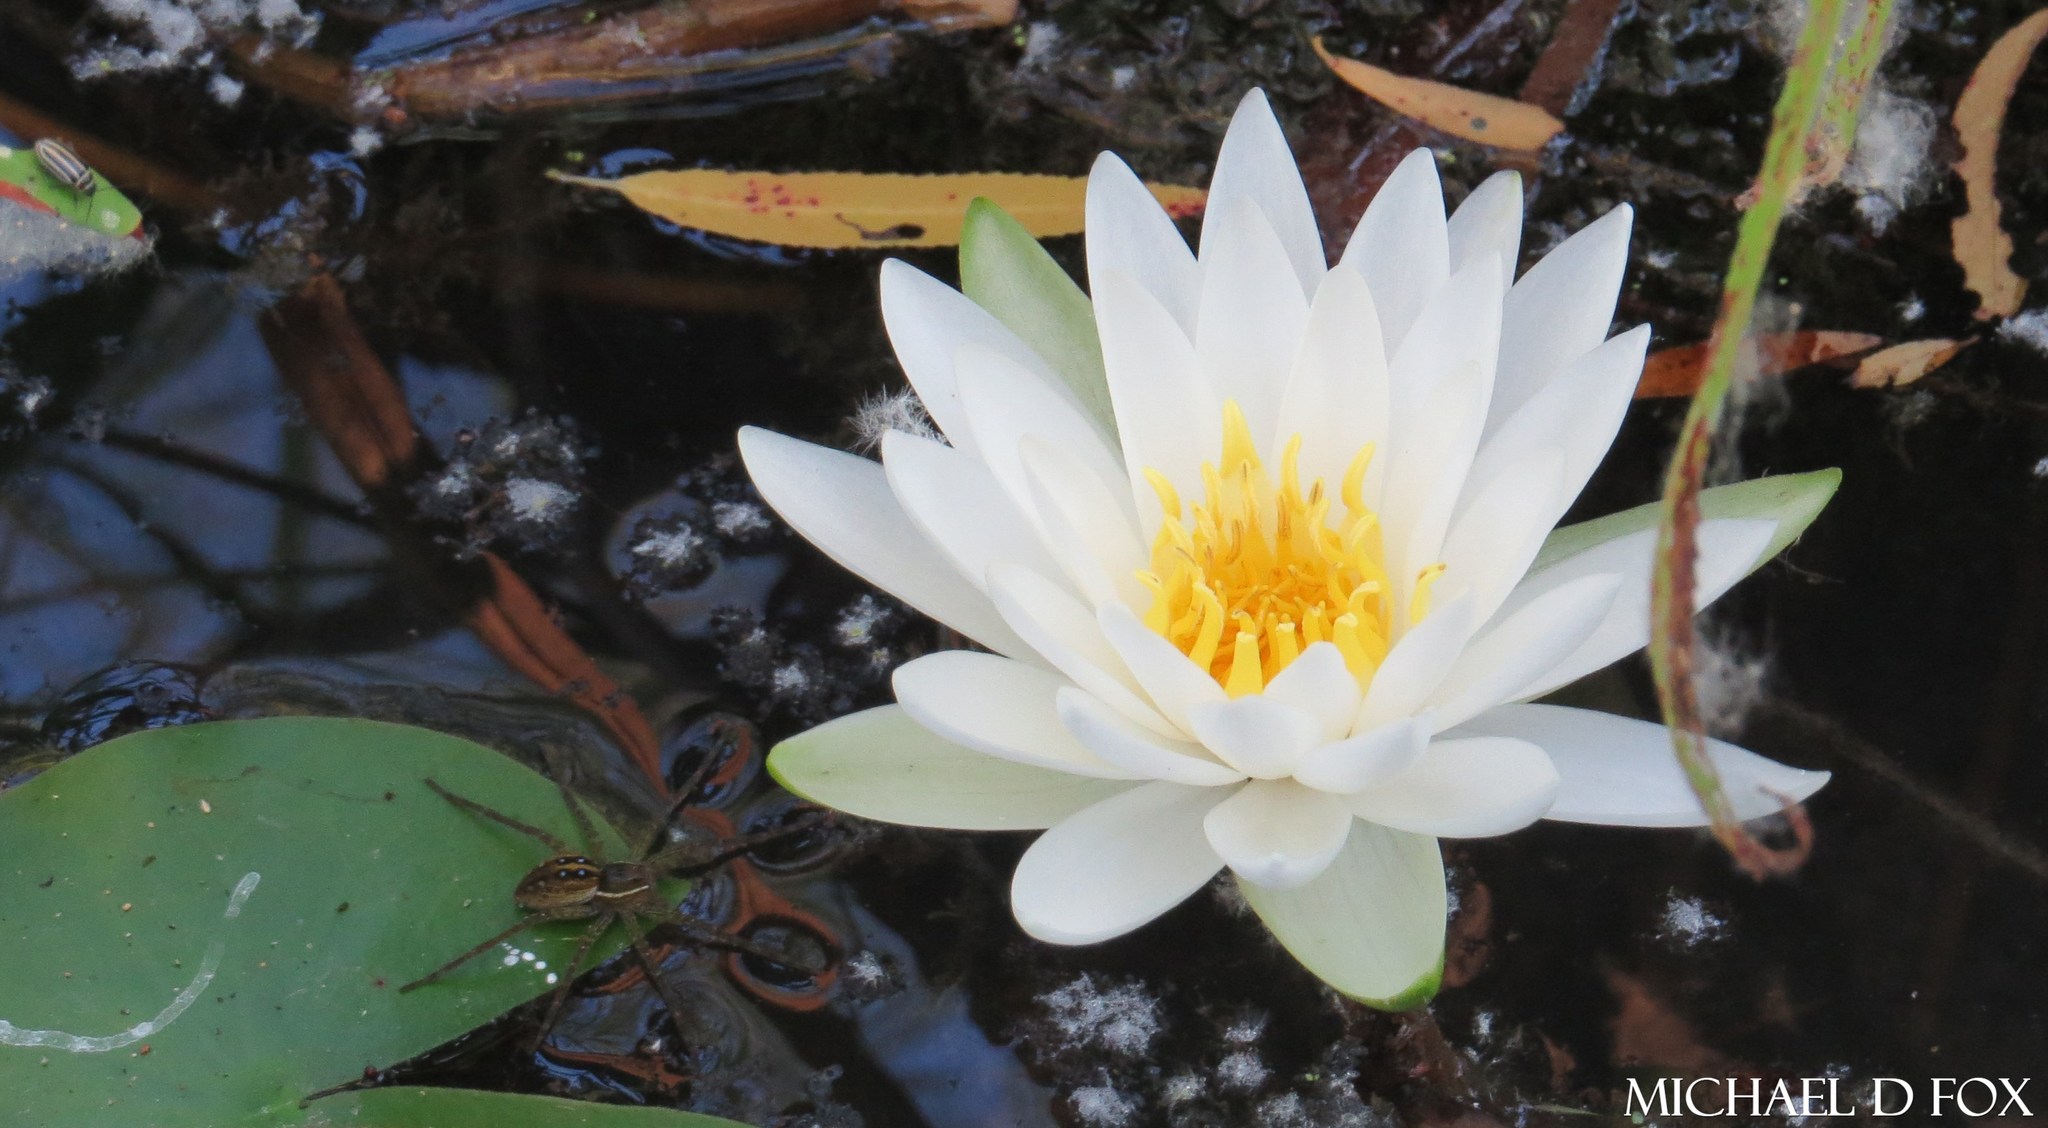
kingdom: Plantae
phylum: Tracheophyta
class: Magnoliopsida
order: Nymphaeales
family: Nymphaeaceae
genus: Nymphaea
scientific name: Nymphaea odorata
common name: Fragrant water-lily
